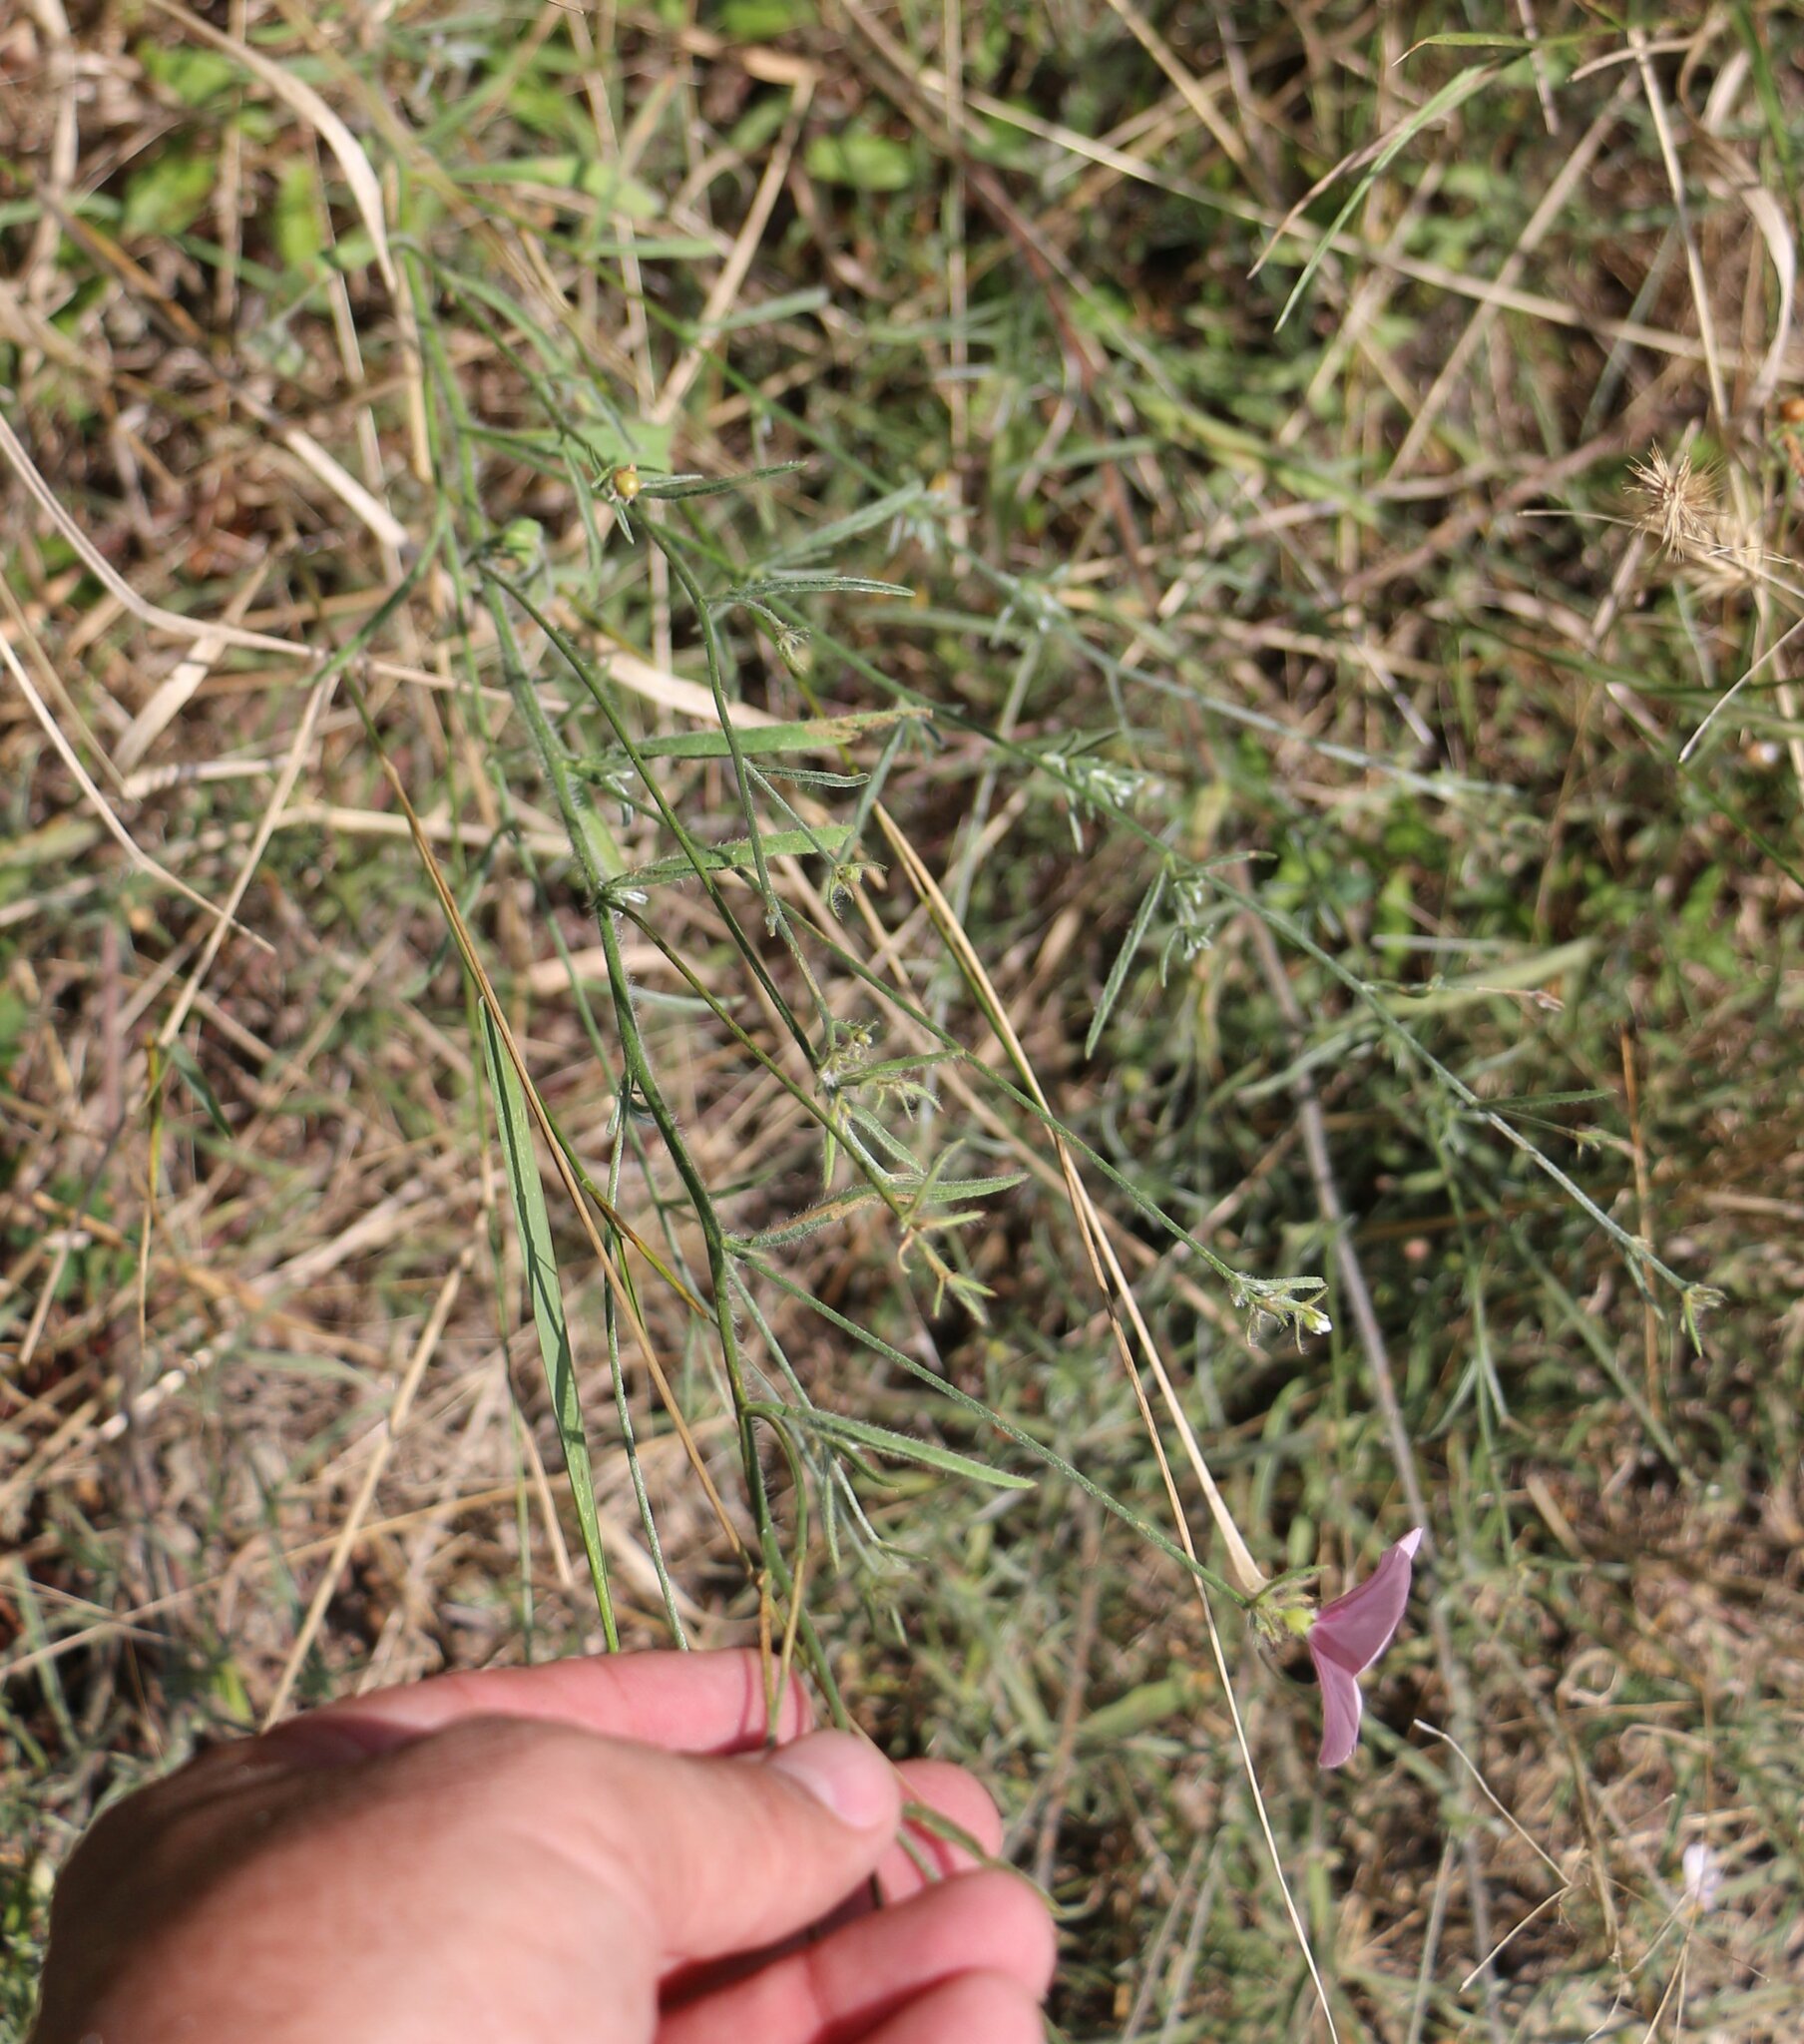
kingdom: Plantae
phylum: Tracheophyta
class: Magnoliopsida
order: Solanales
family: Convolvulaceae
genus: Convolvulus
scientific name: Convolvulus cantabrica
